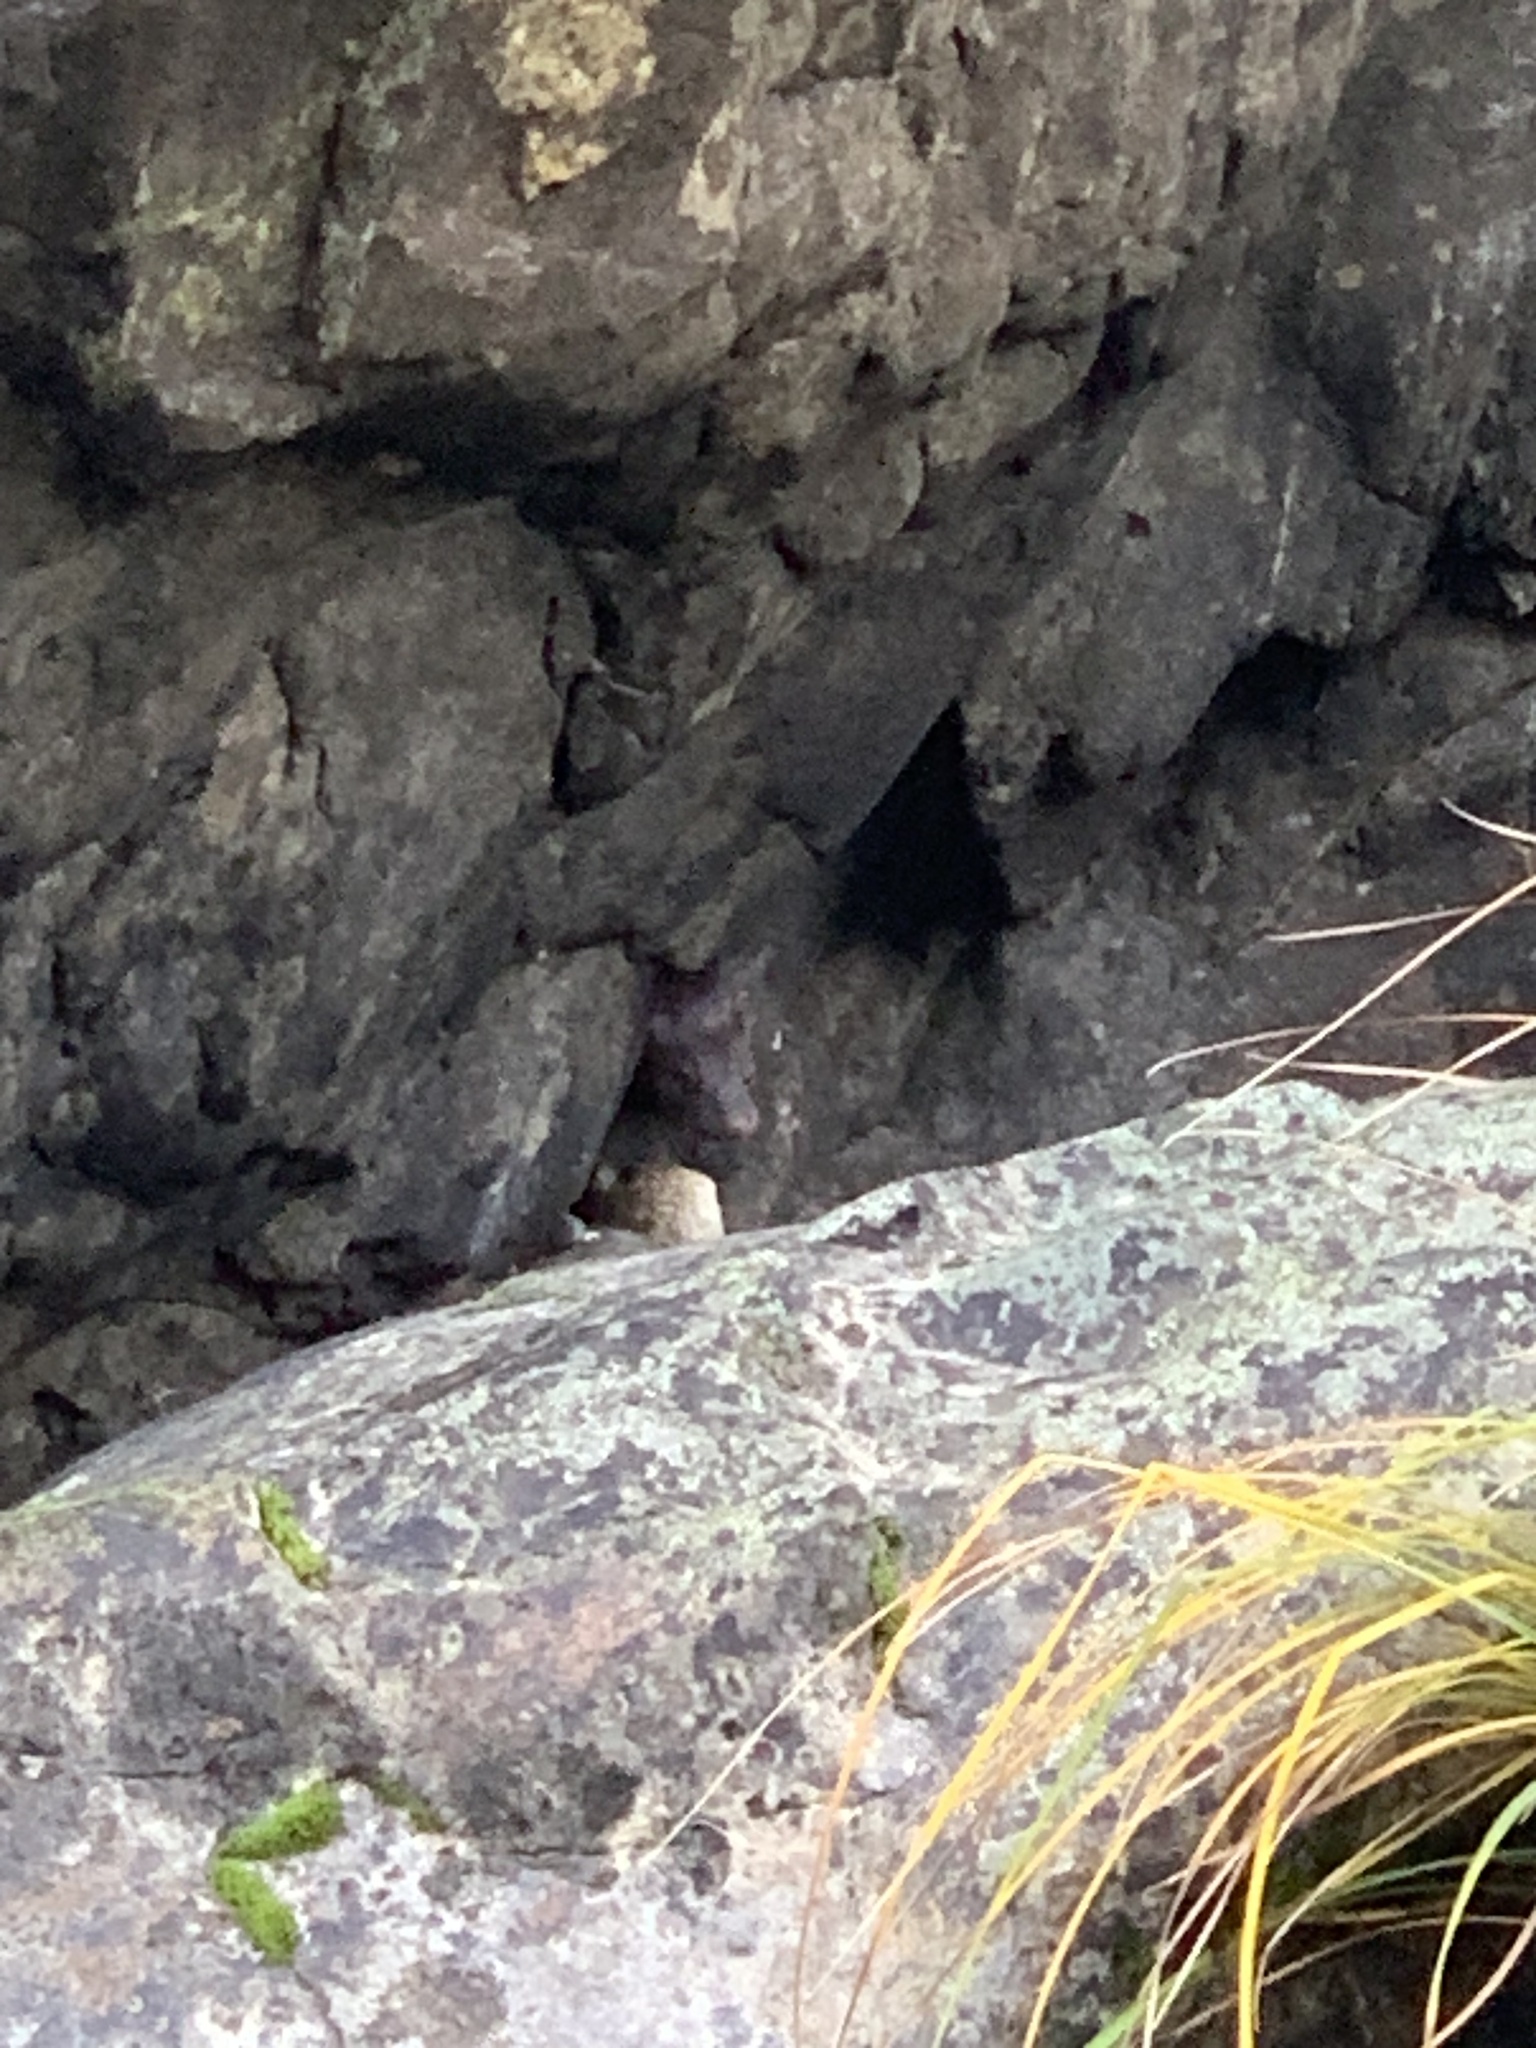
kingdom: Animalia
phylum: Chordata
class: Mammalia
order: Carnivora
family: Mustelidae
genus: Mustela
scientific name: Mustela
